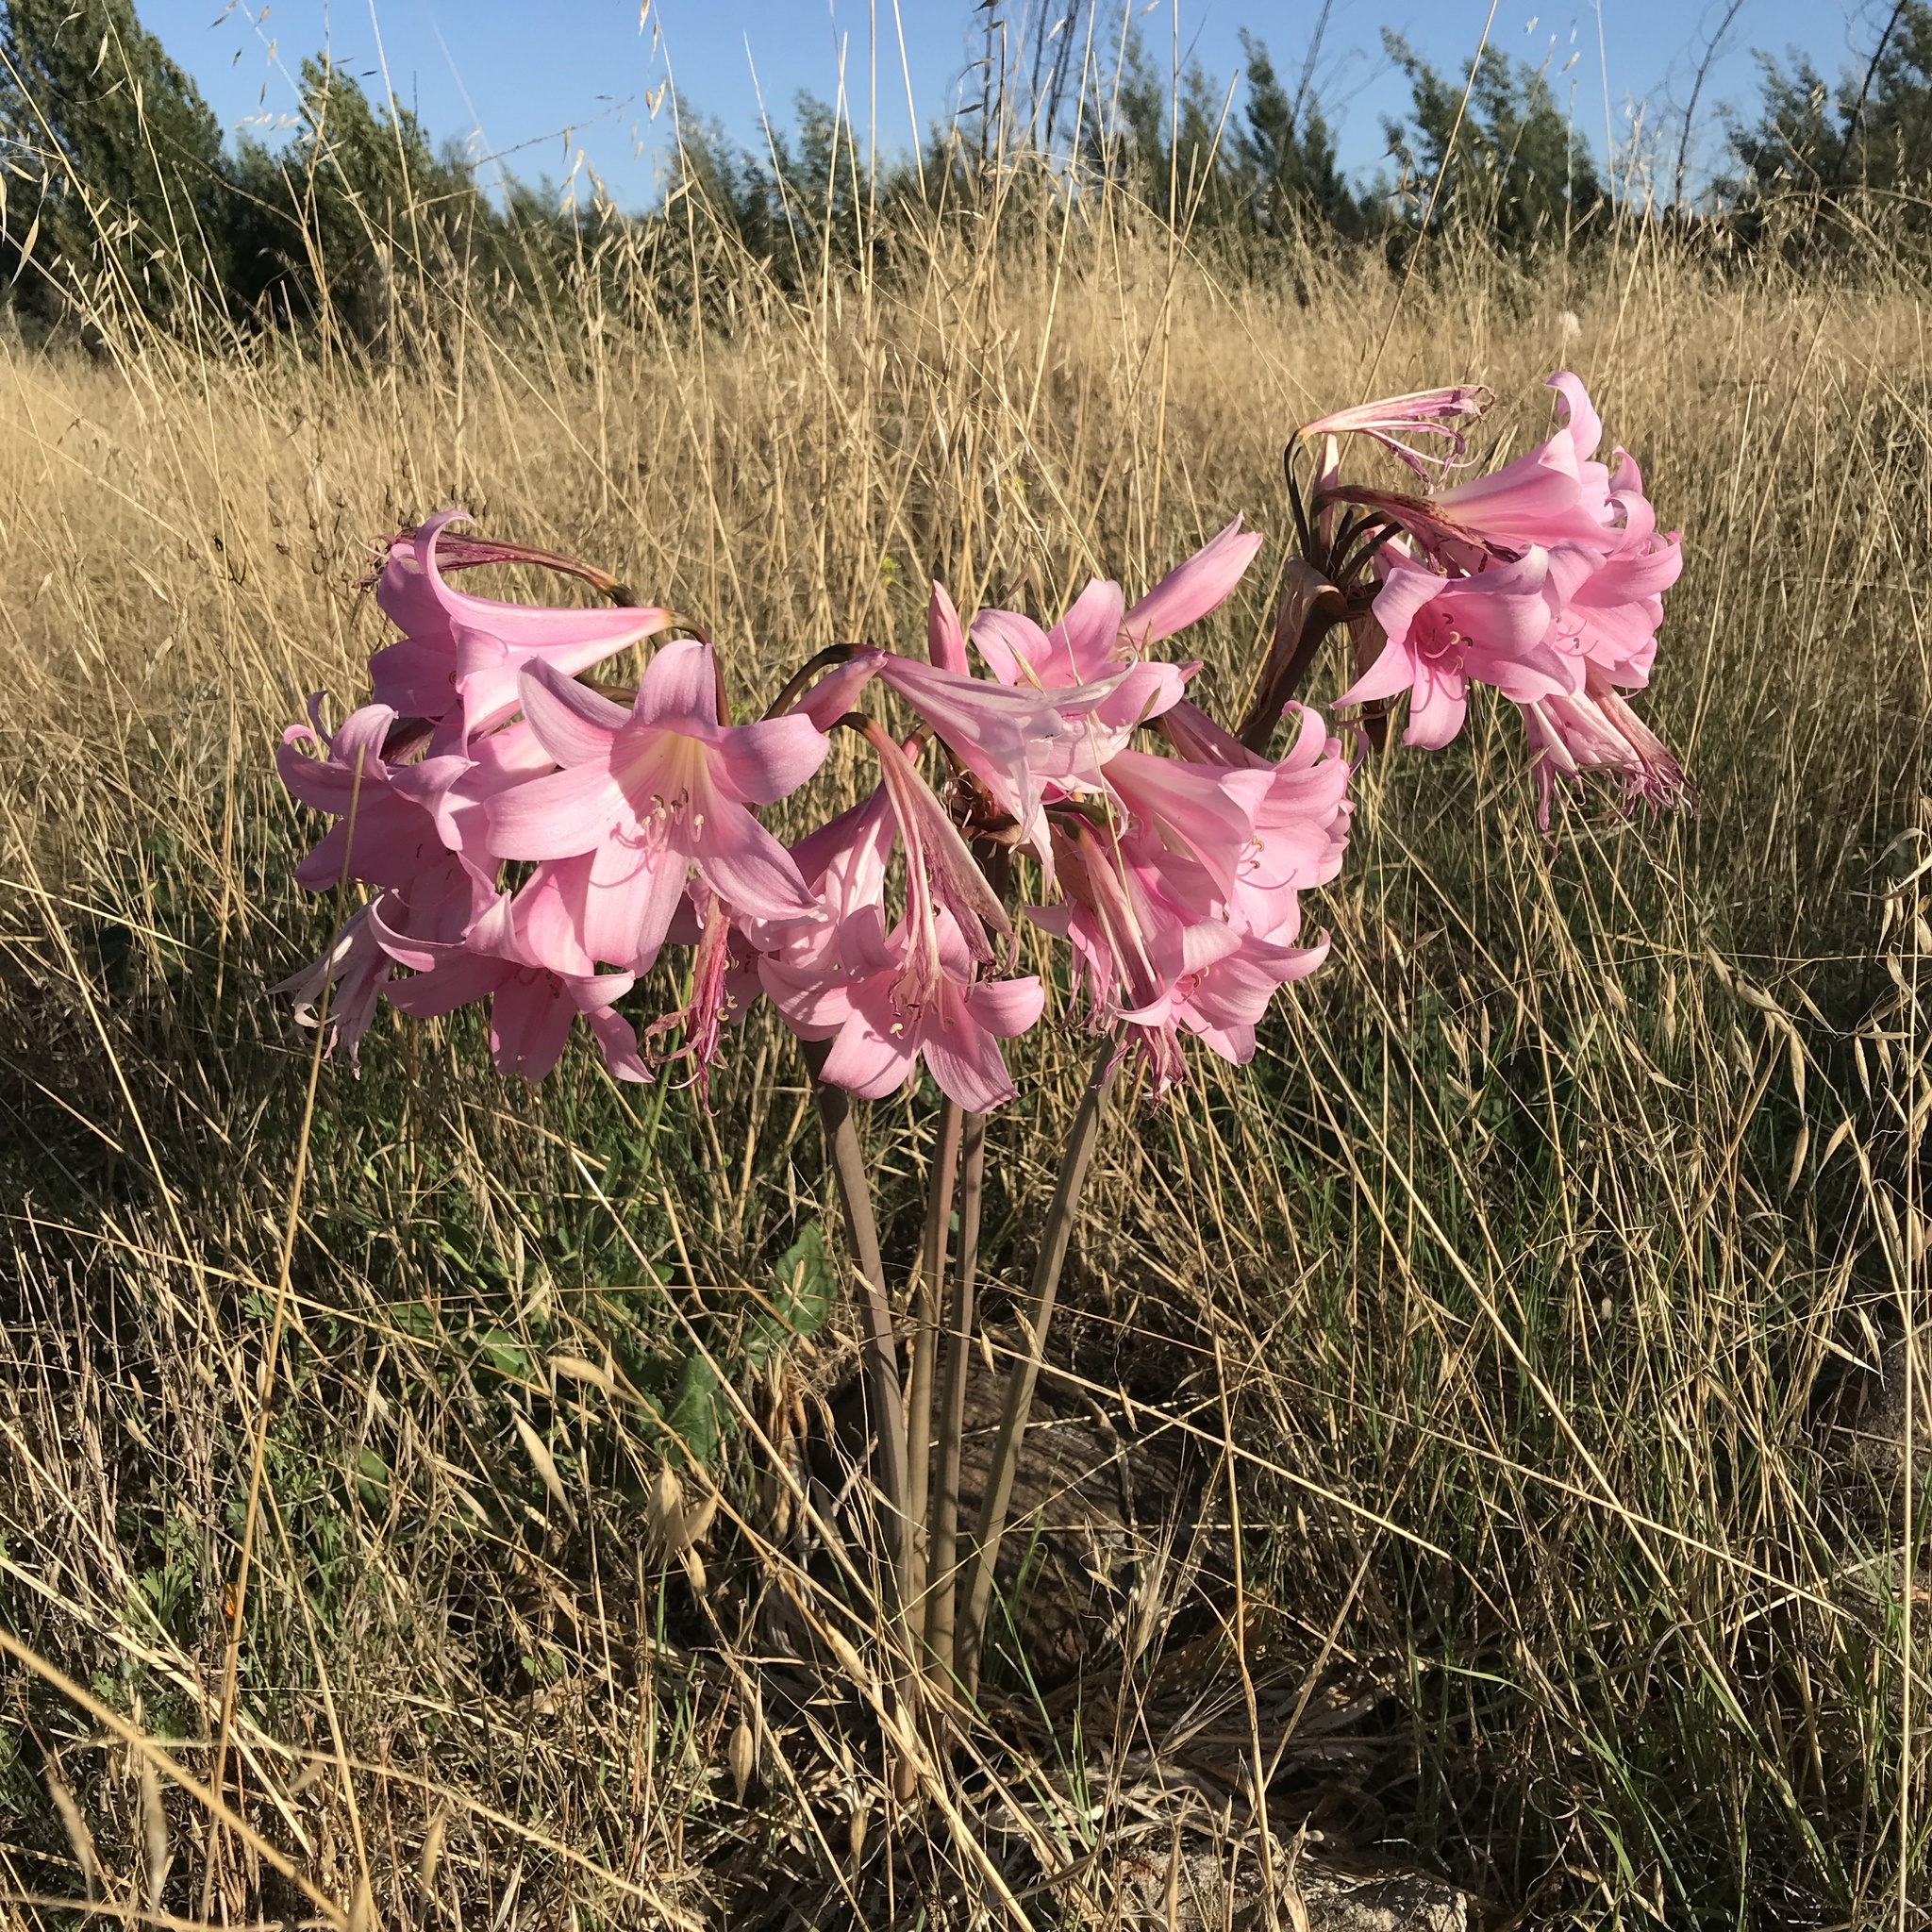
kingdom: Plantae
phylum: Tracheophyta
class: Liliopsida
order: Asparagales
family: Amaryllidaceae
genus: Amaryllis
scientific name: Amaryllis belladonna
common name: Jersey lily
